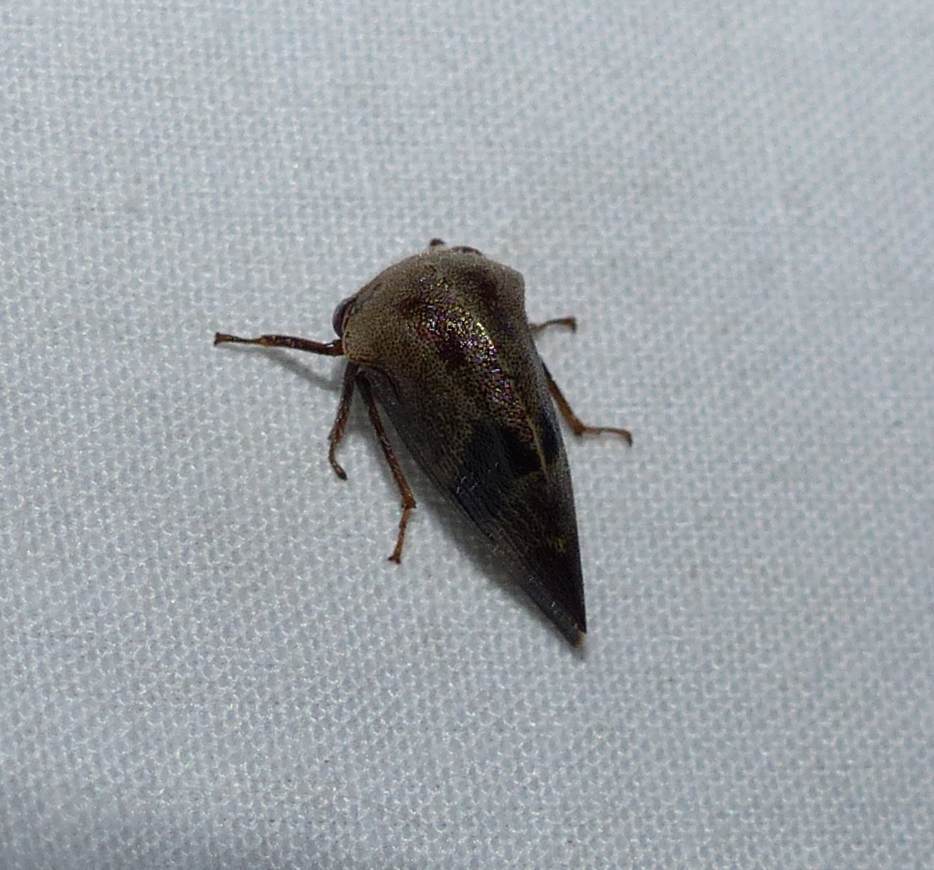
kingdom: Animalia
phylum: Arthropoda
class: Insecta
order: Hemiptera
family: Membracidae
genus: Carynota
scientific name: Carynota mera
